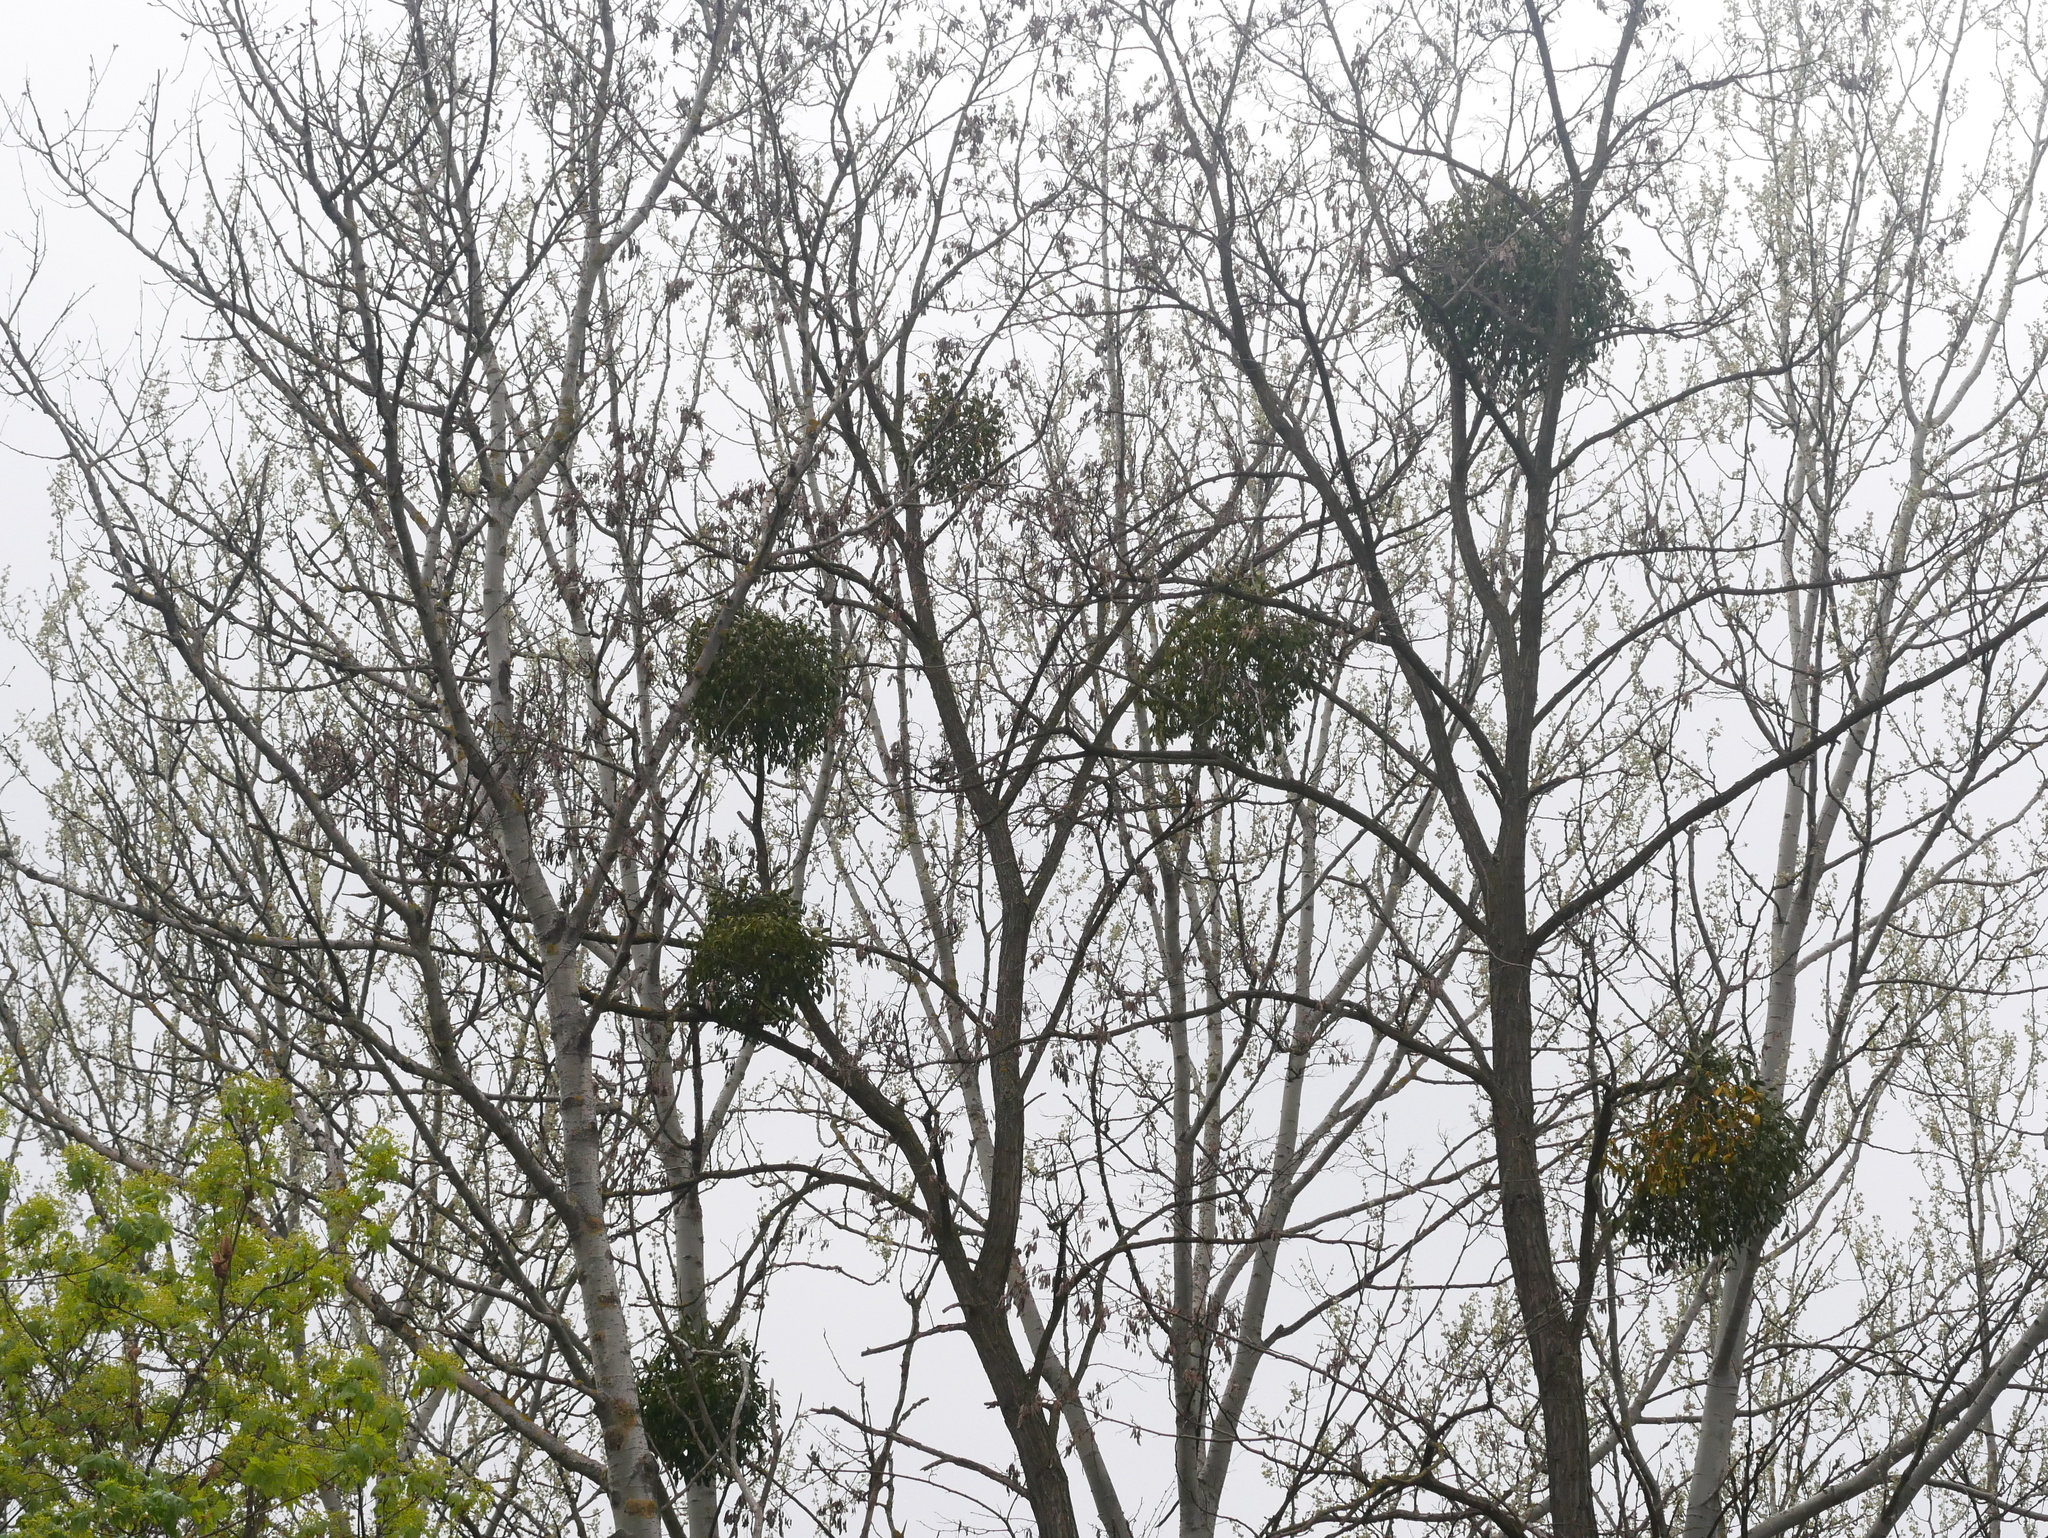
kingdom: Plantae
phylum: Tracheophyta
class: Magnoliopsida
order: Santalales
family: Viscaceae
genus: Viscum
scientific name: Viscum album
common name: Mistletoe
